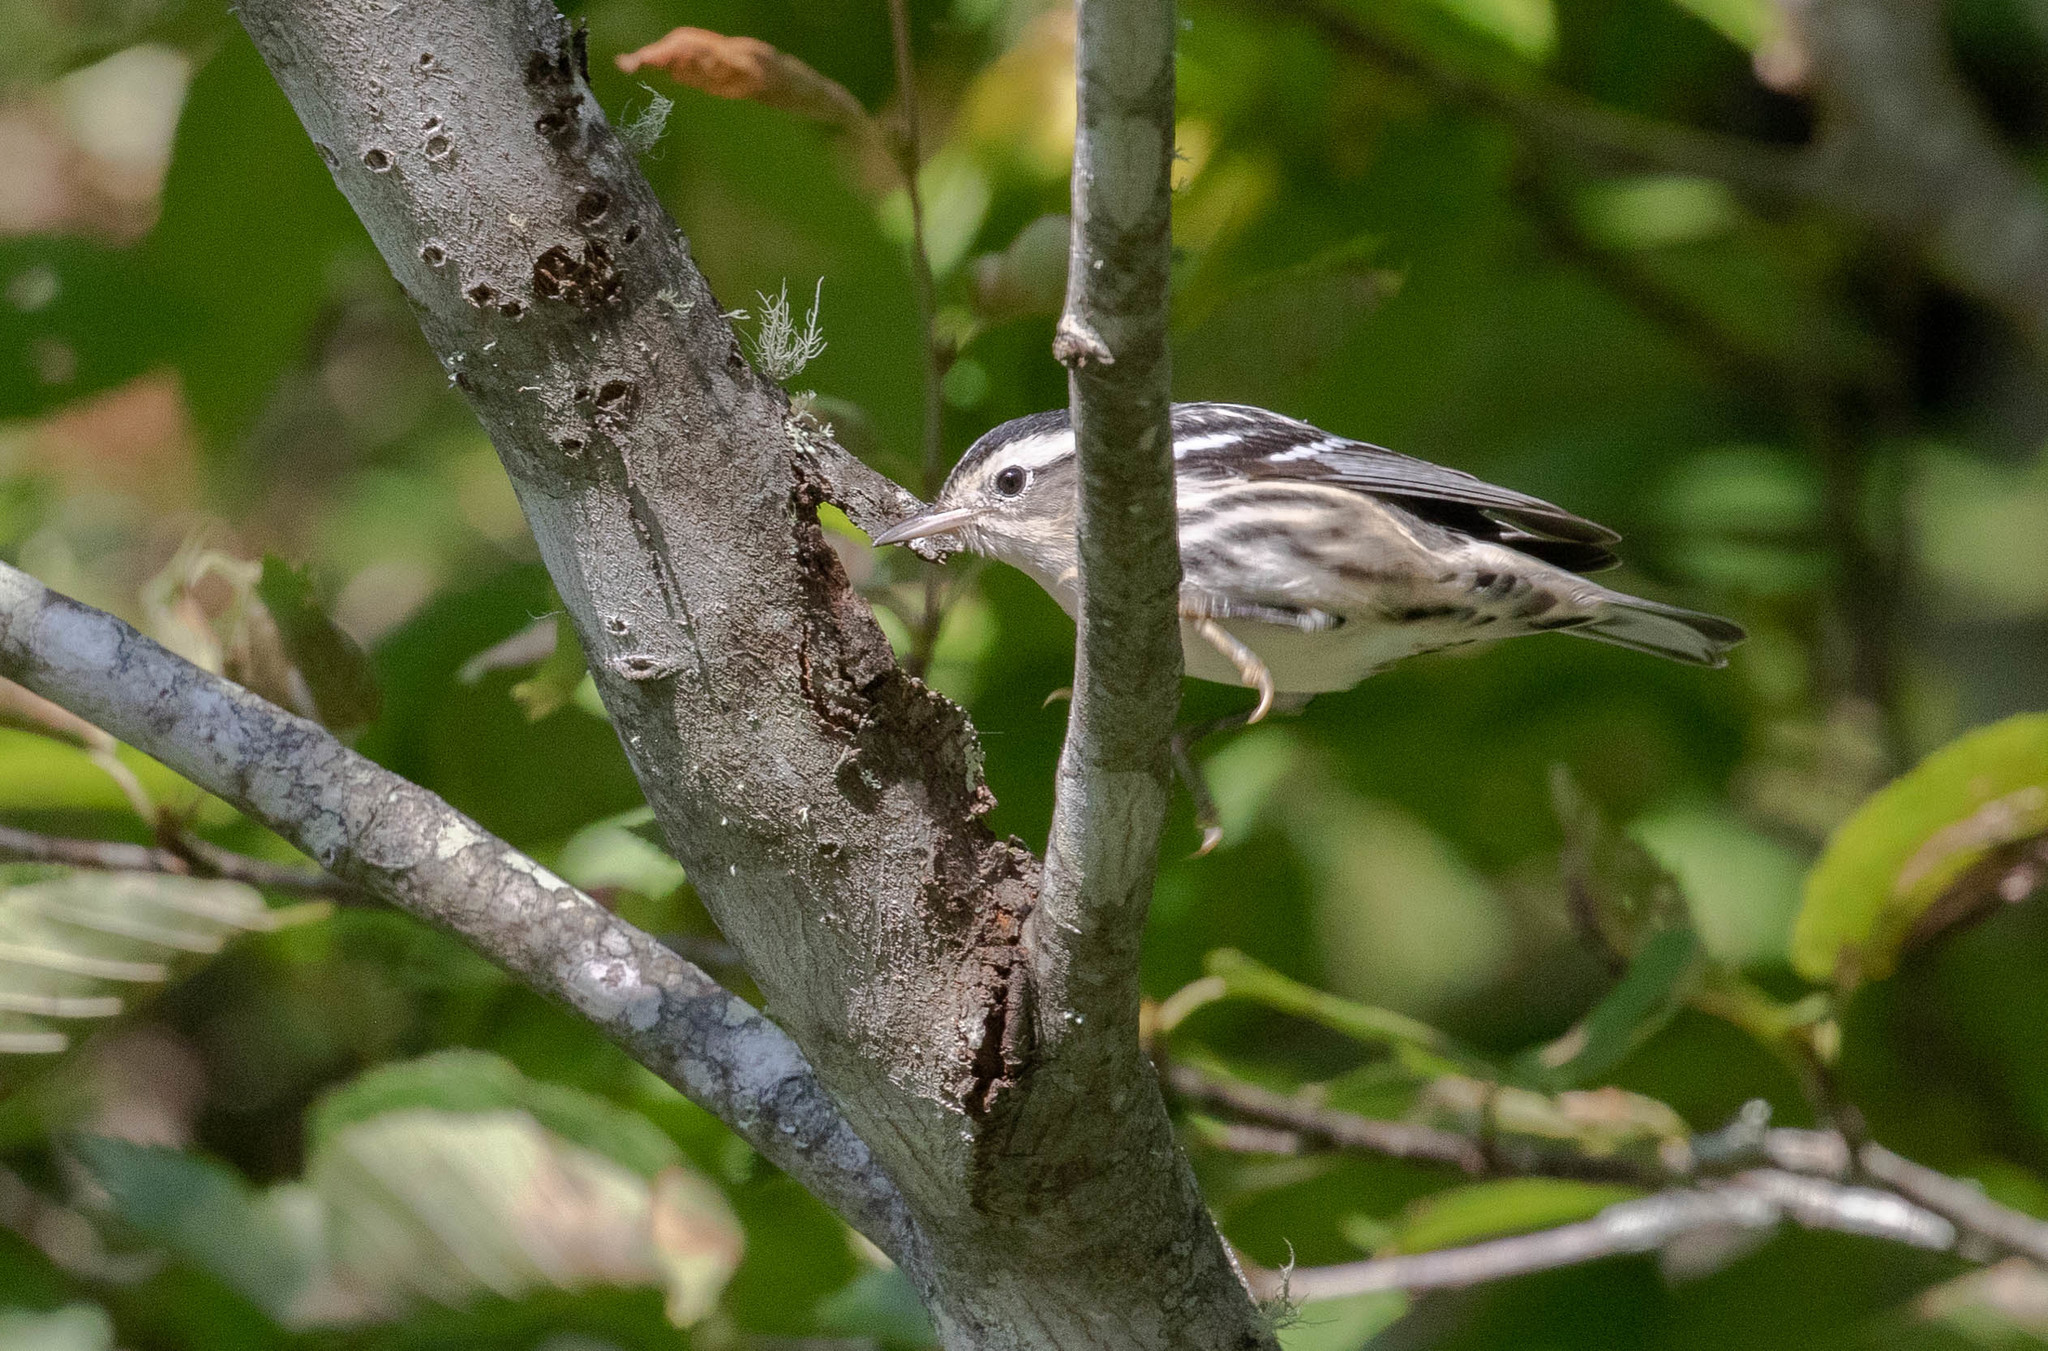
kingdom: Animalia
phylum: Chordata
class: Aves
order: Passeriformes
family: Parulidae
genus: Mniotilta
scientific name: Mniotilta varia
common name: Black-and-white warbler
